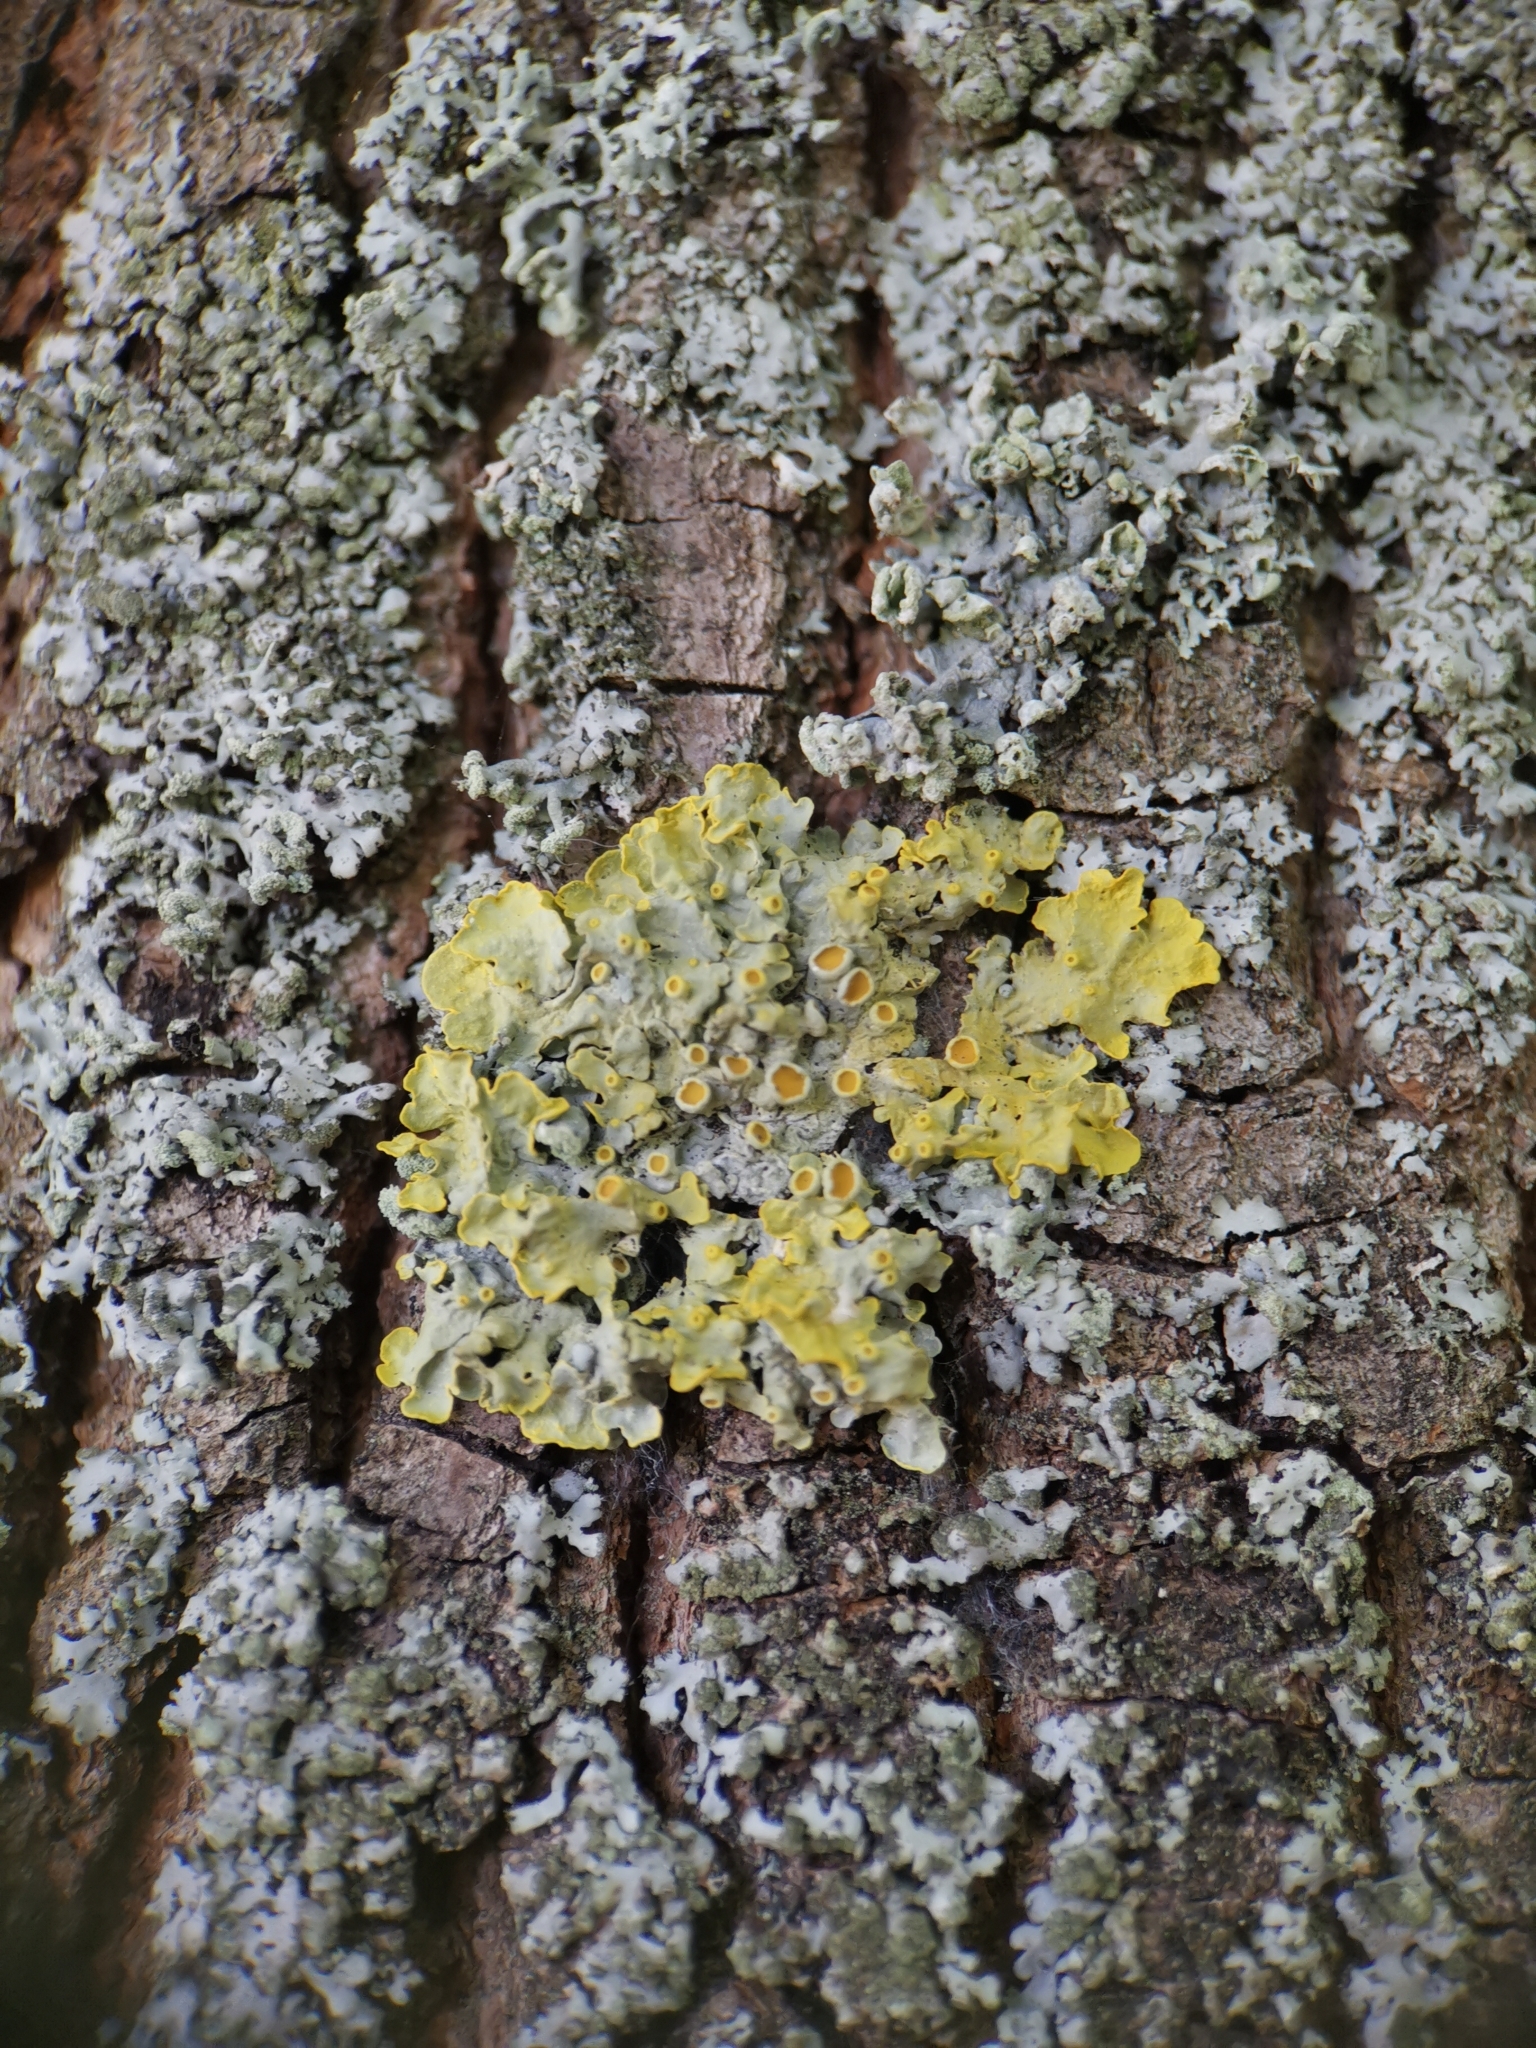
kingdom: Fungi
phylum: Ascomycota
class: Lecanoromycetes
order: Teloschistales
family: Teloschistaceae
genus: Xanthoria
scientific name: Xanthoria parietina
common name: Common orange lichen
